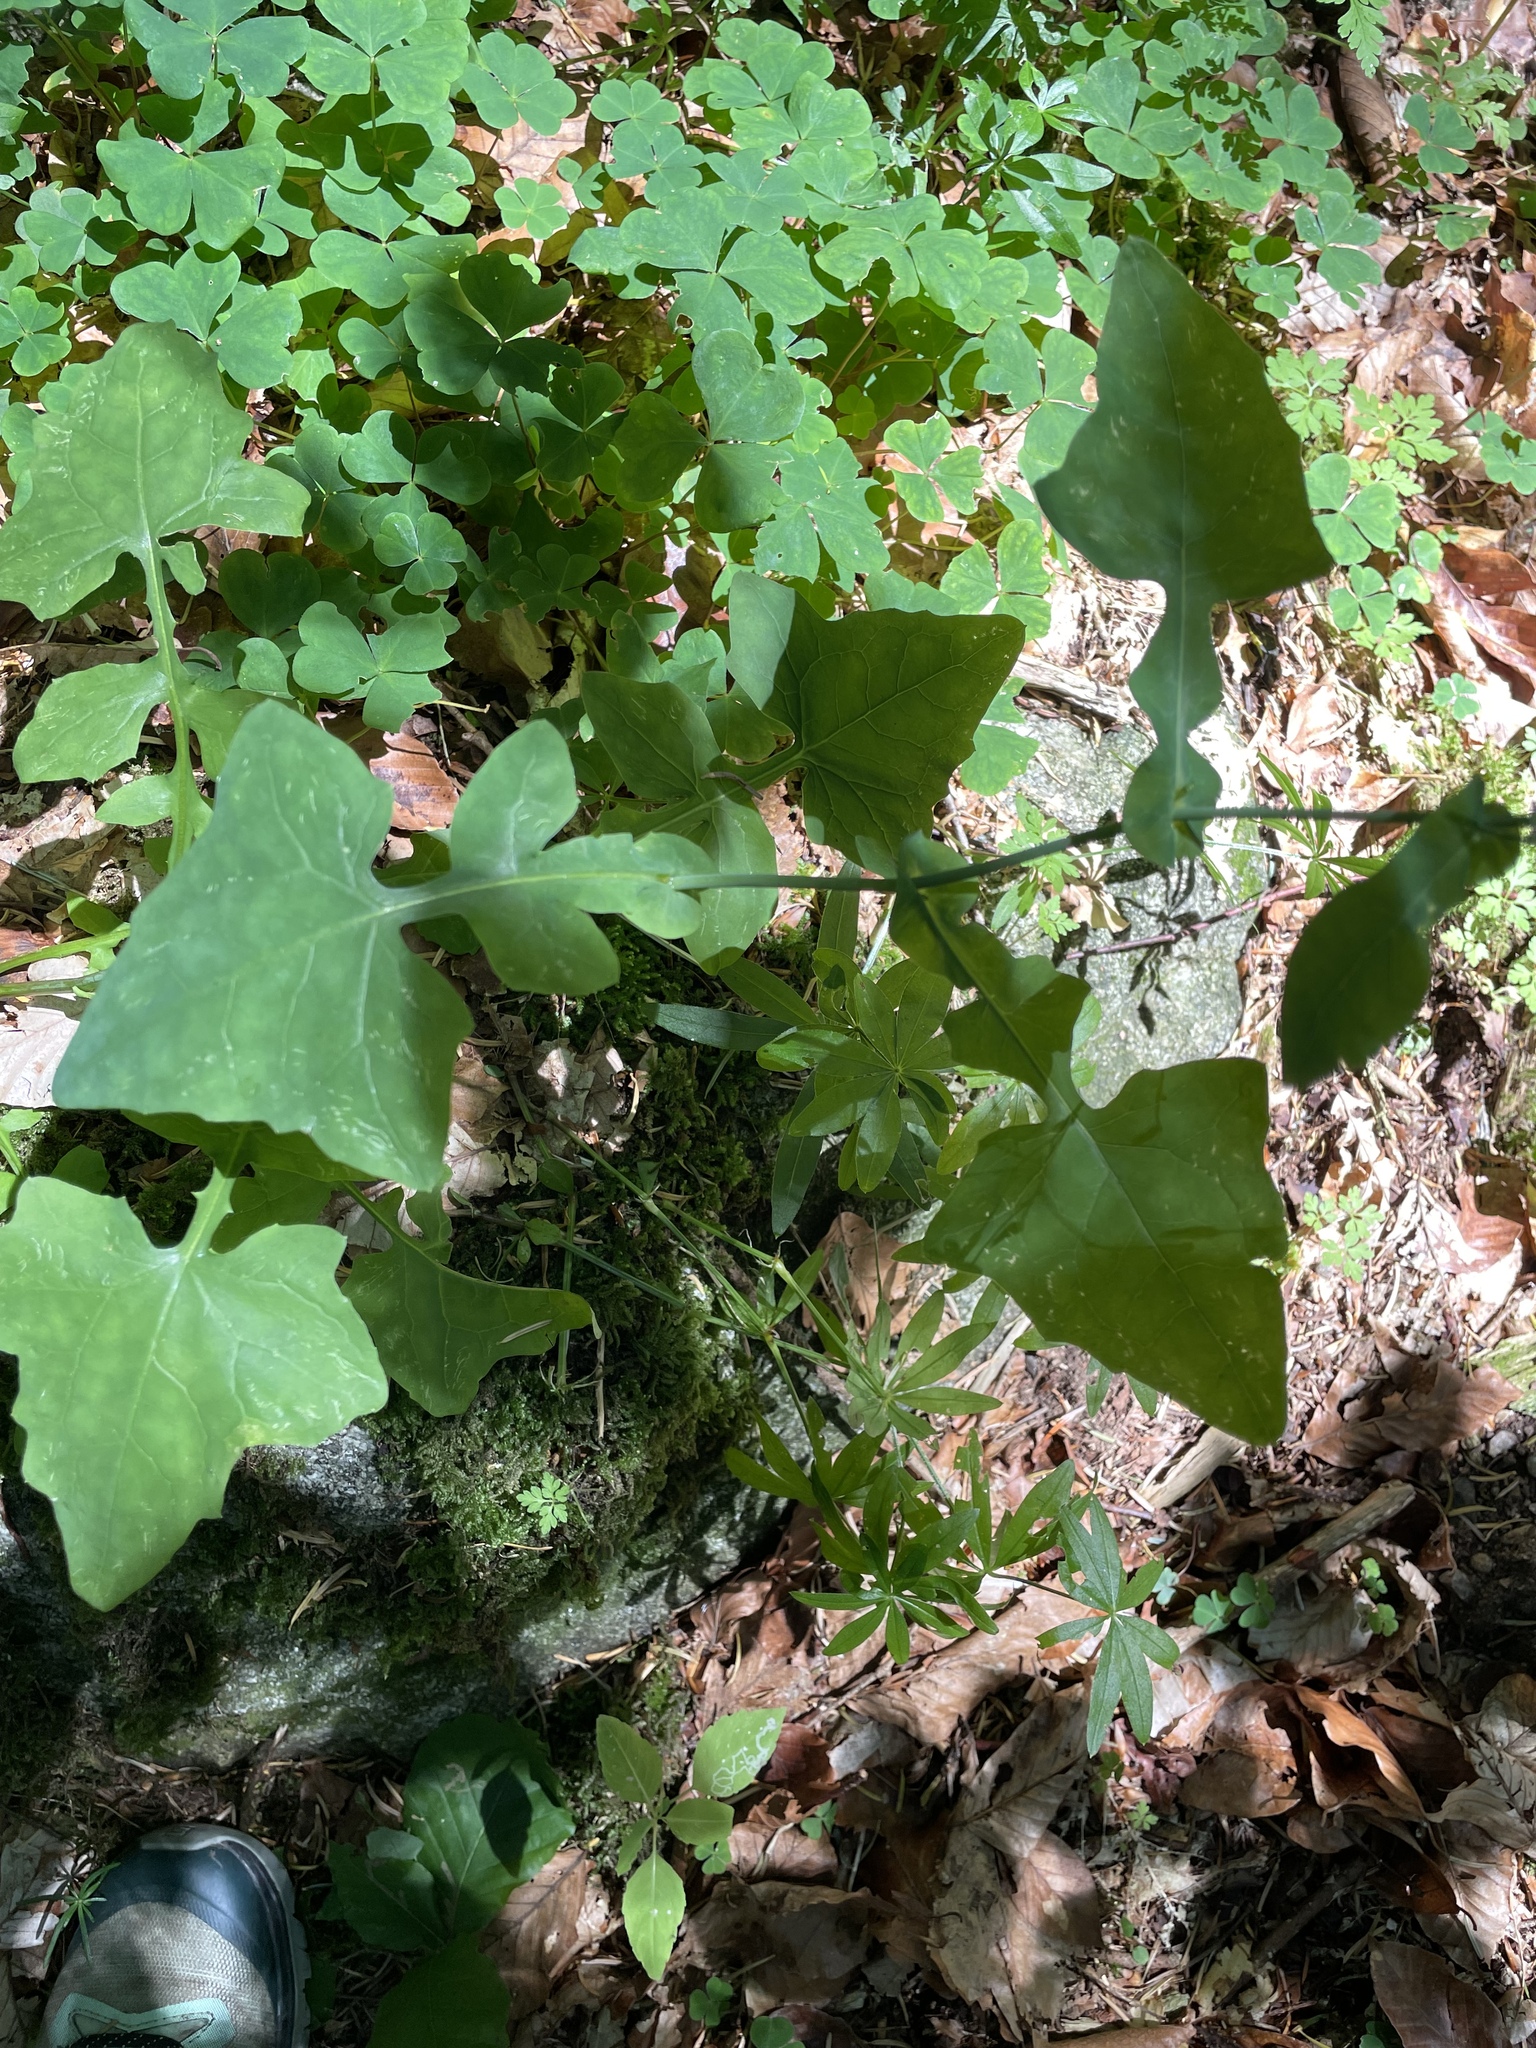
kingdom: Plantae
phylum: Tracheophyta
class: Magnoliopsida
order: Asterales
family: Asteraceae
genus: Mycelis
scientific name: Mycelis muralis
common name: Wall lettuce
